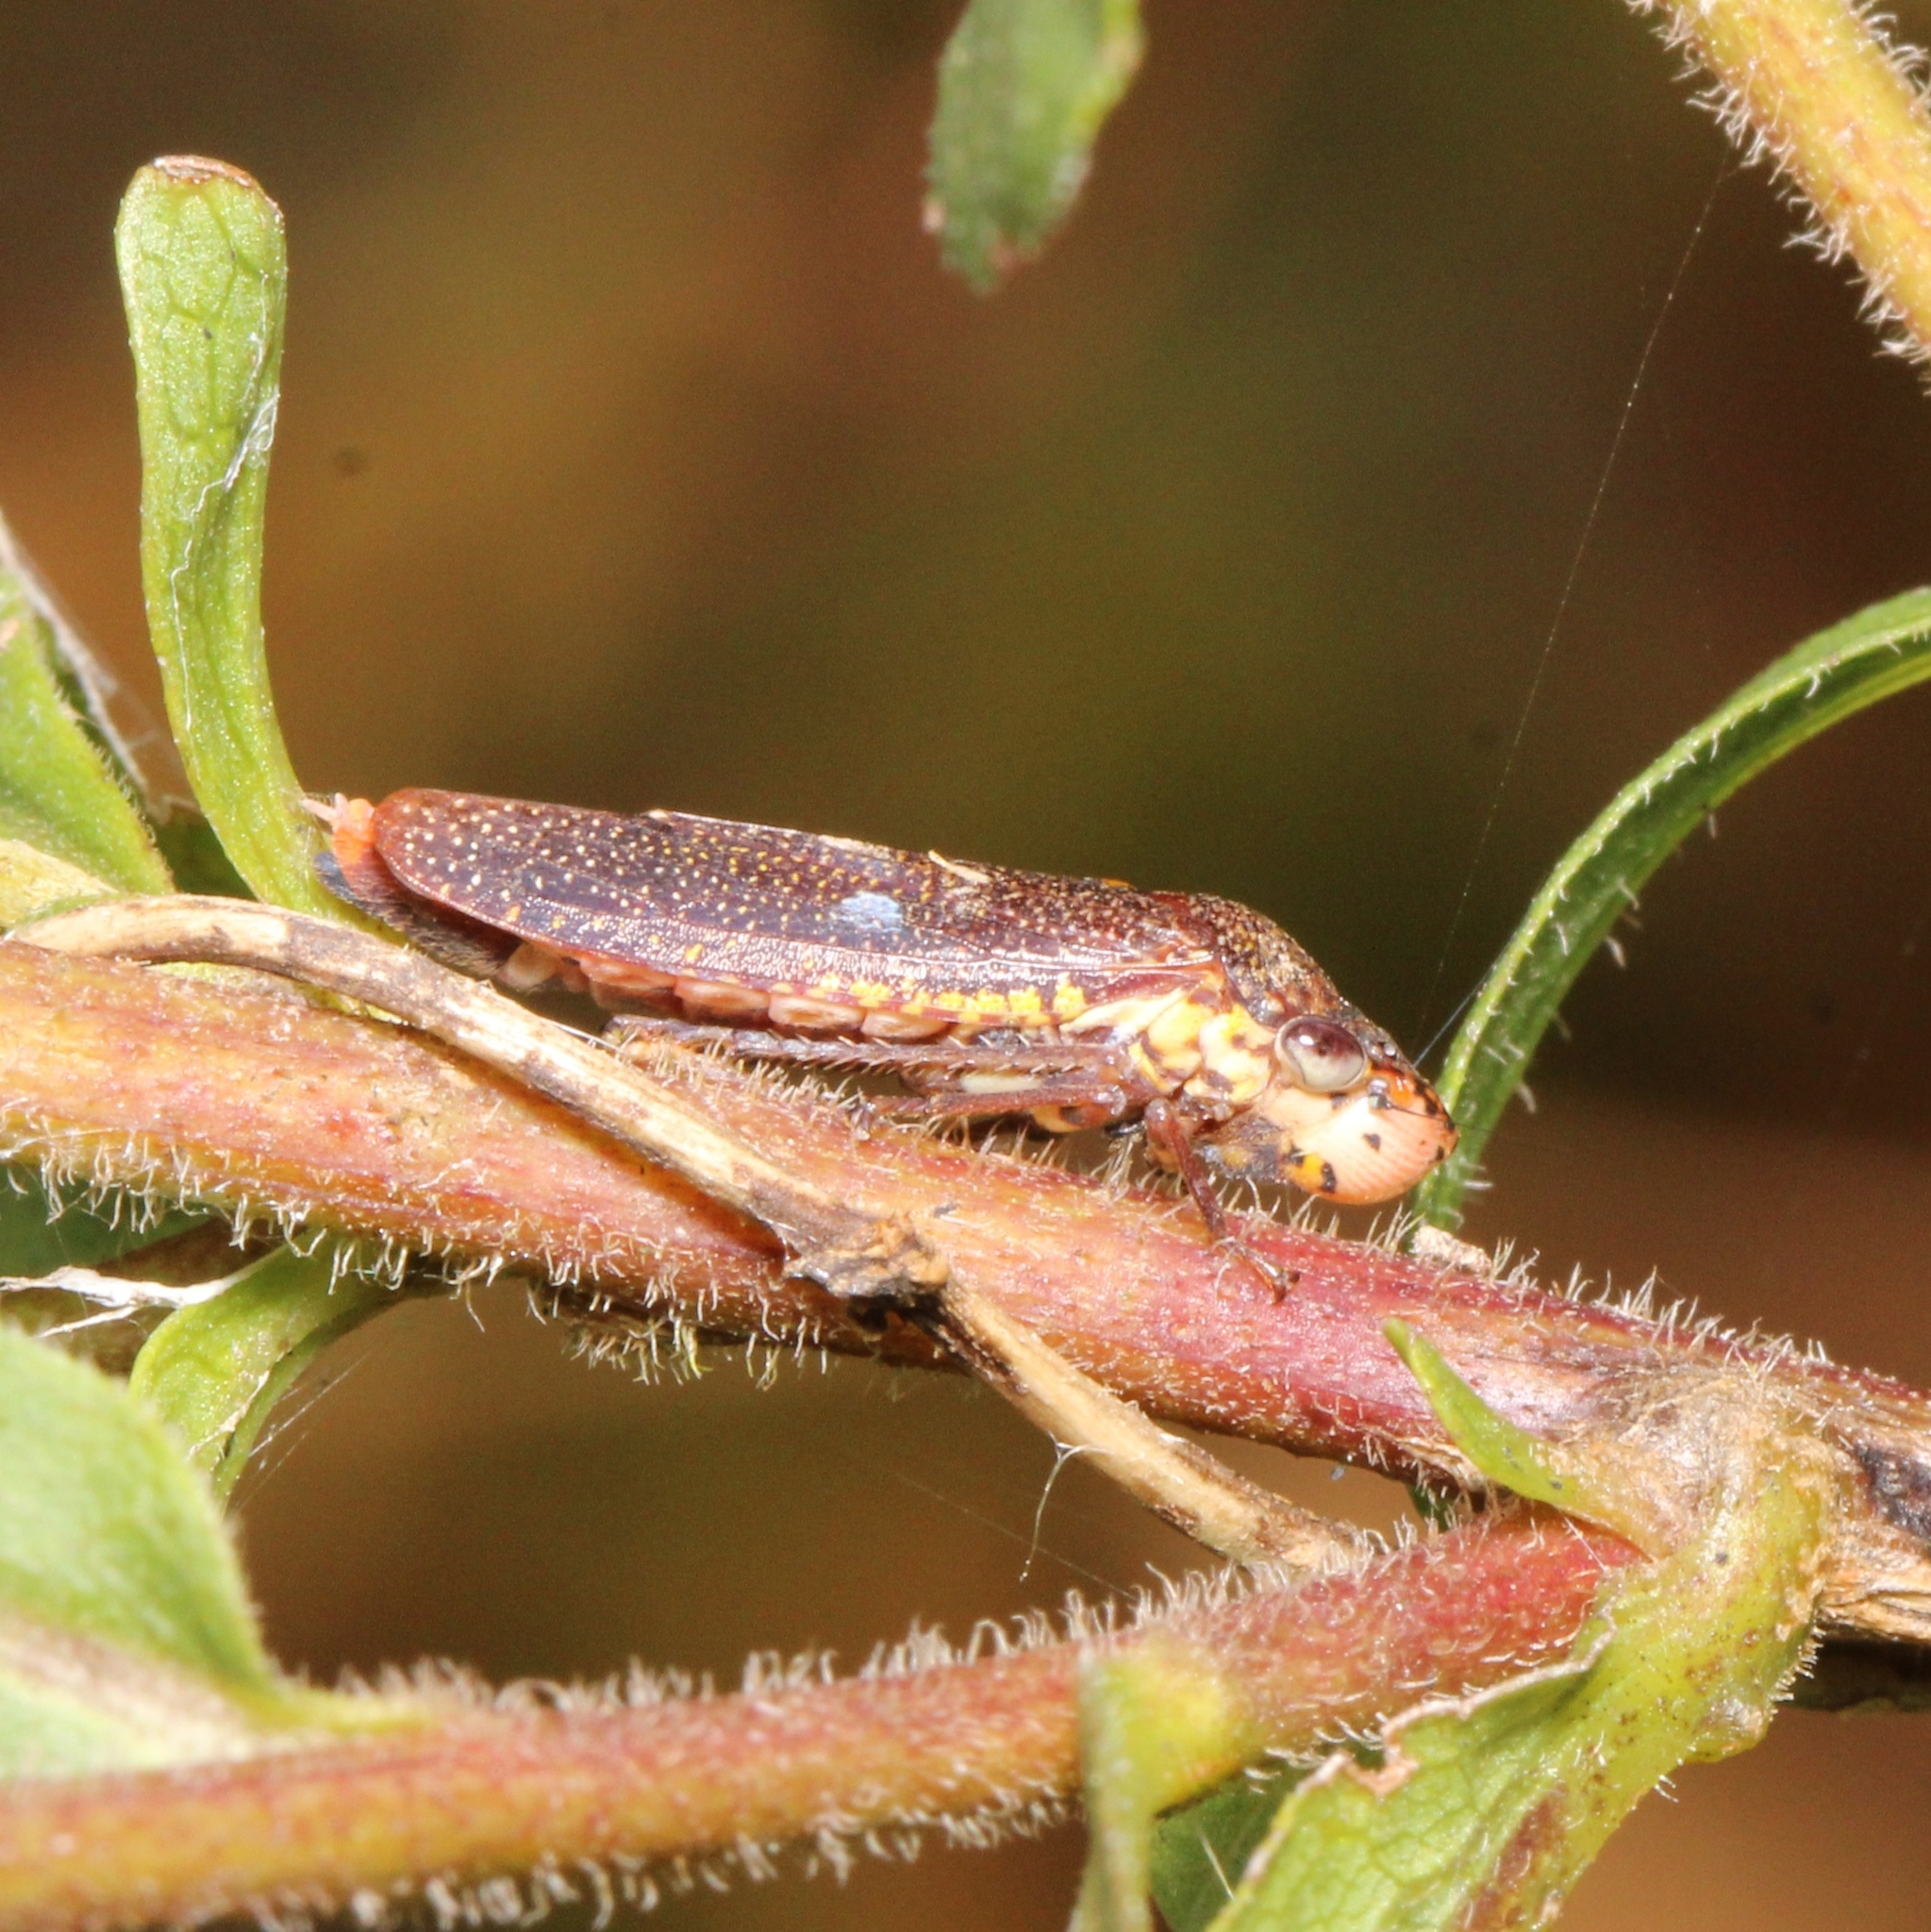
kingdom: Animalia
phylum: Arthropoda
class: Insecta
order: Hemiptera
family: Cicadellidae
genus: Paraulacizes
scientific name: Paraulacizes irrorata
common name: Speckled sharpshooter
